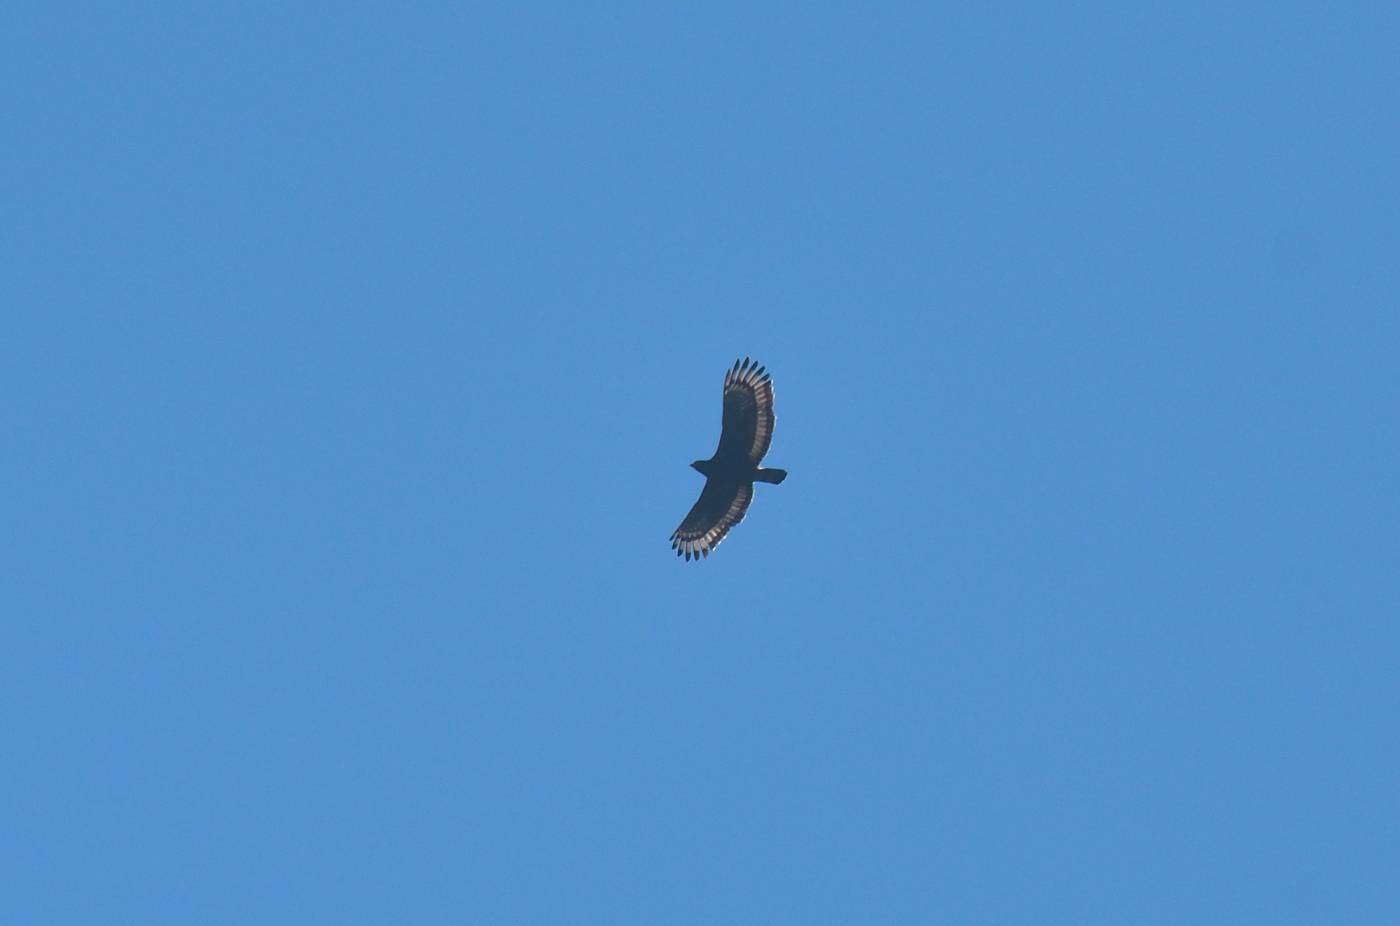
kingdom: Animalia
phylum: Chordata
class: Aves
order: Accipitriformes
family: Accipitridae
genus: Spilornis
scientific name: Spilornis cheela
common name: Crested serpent eagle
